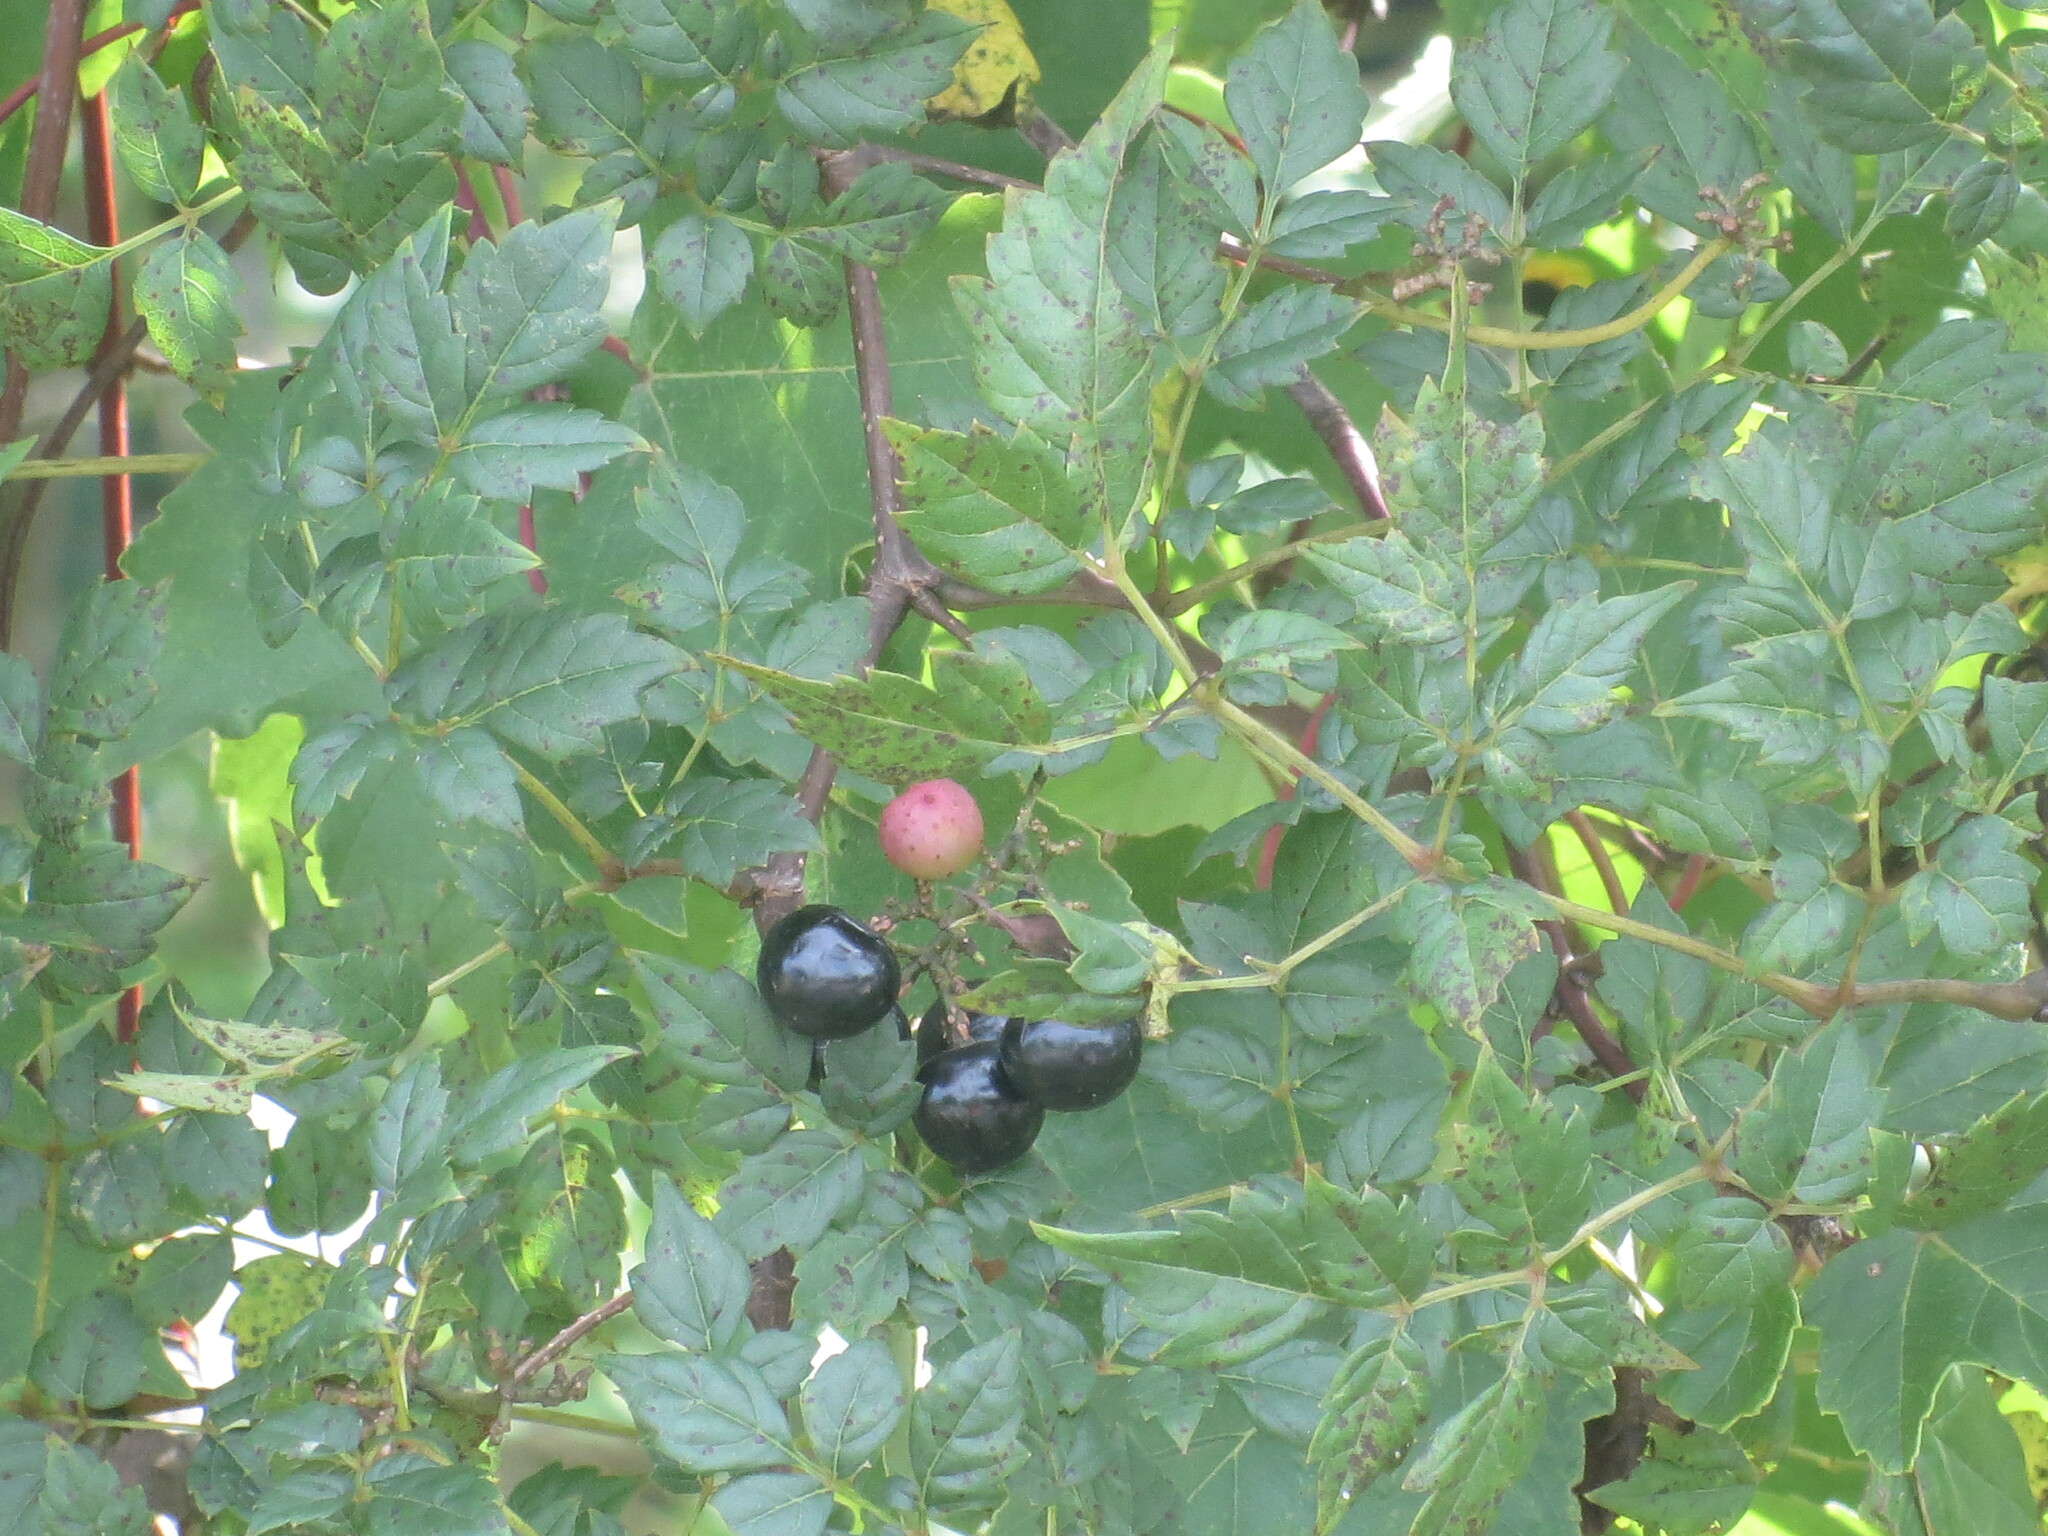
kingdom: Plantae
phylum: Tracheophyta
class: Magnoliopsida
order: Vitales
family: Vitaceae
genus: Nekemias
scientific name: Nekemias arborea
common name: Peppervine
